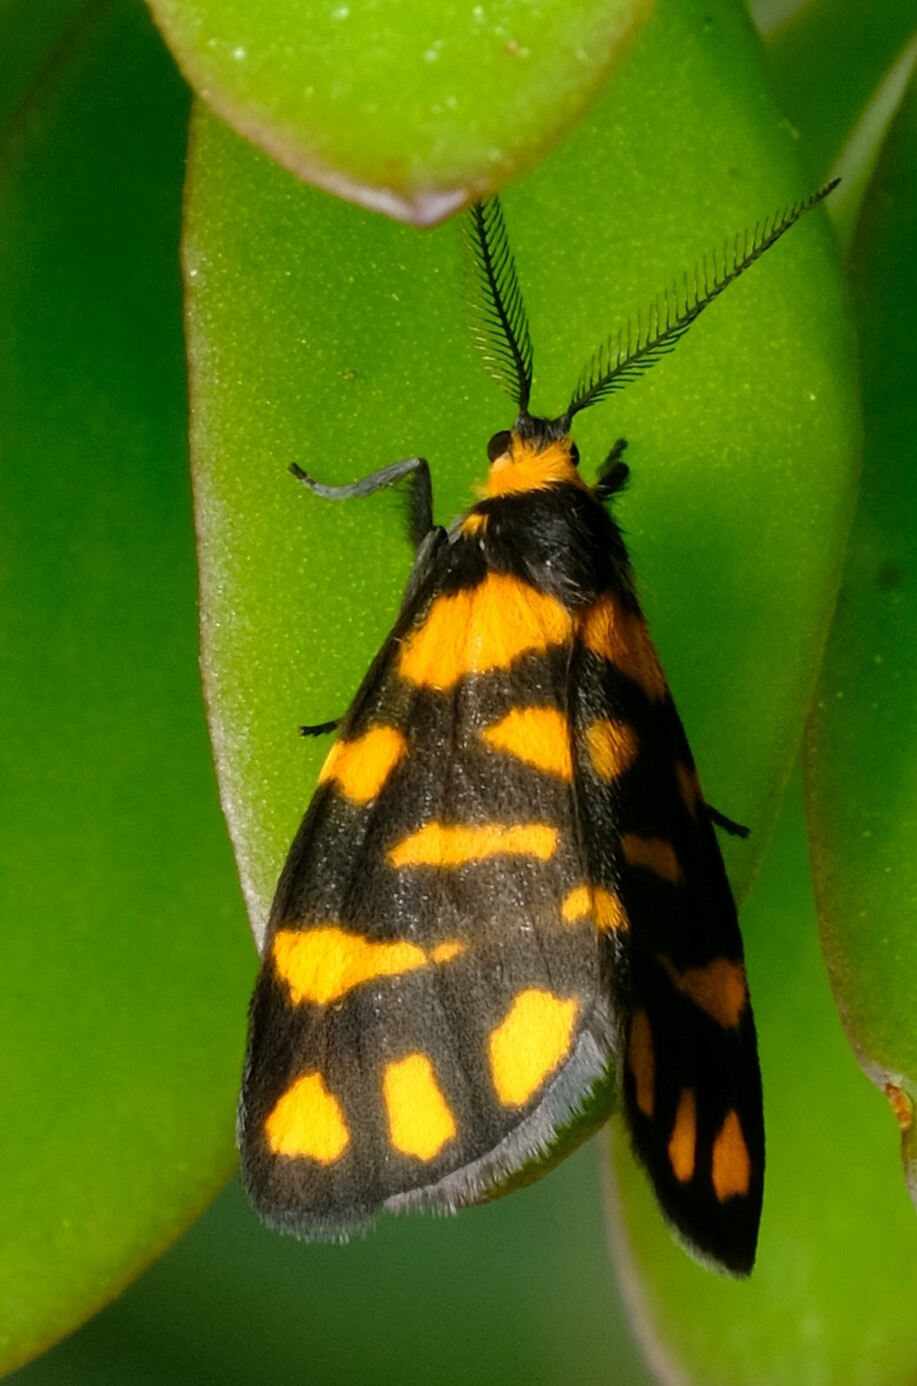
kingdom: Animalia
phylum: Arthropoda
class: Insecta
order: Lepidoptera
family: Erebidae
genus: Asura
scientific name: Asura lydia
